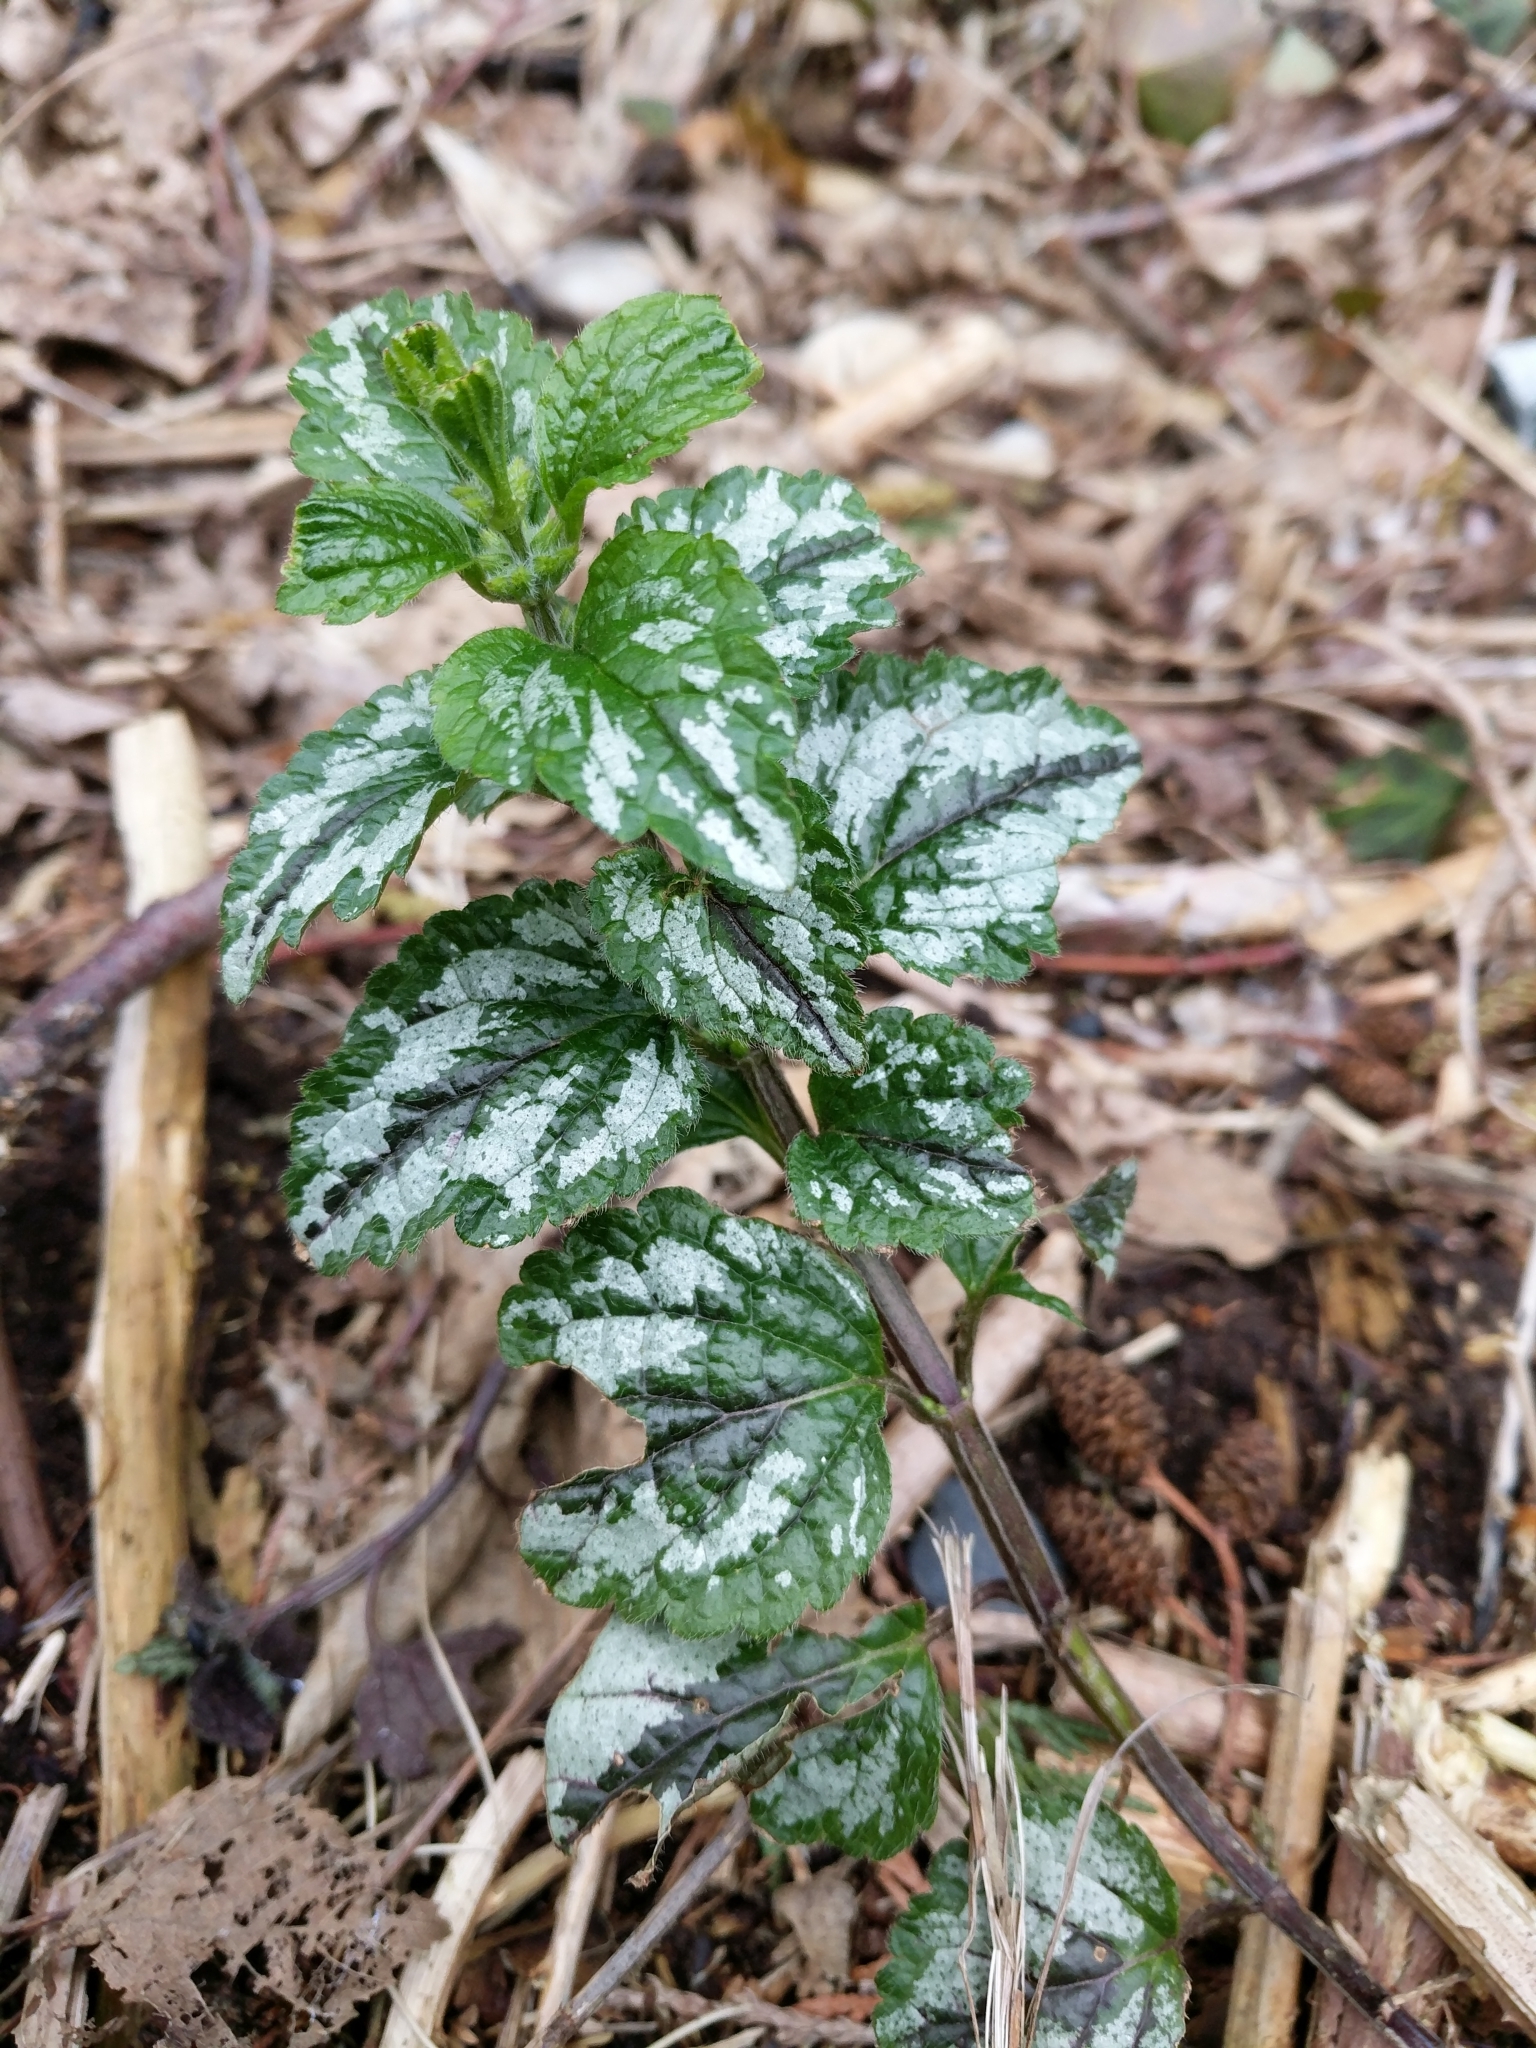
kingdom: Plantae
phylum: Tracheophyta
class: Magnoliopsida
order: Lamiales
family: Lamiaceae
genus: Lamium
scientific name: Lamium galeobdolon
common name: Yellow archangel
